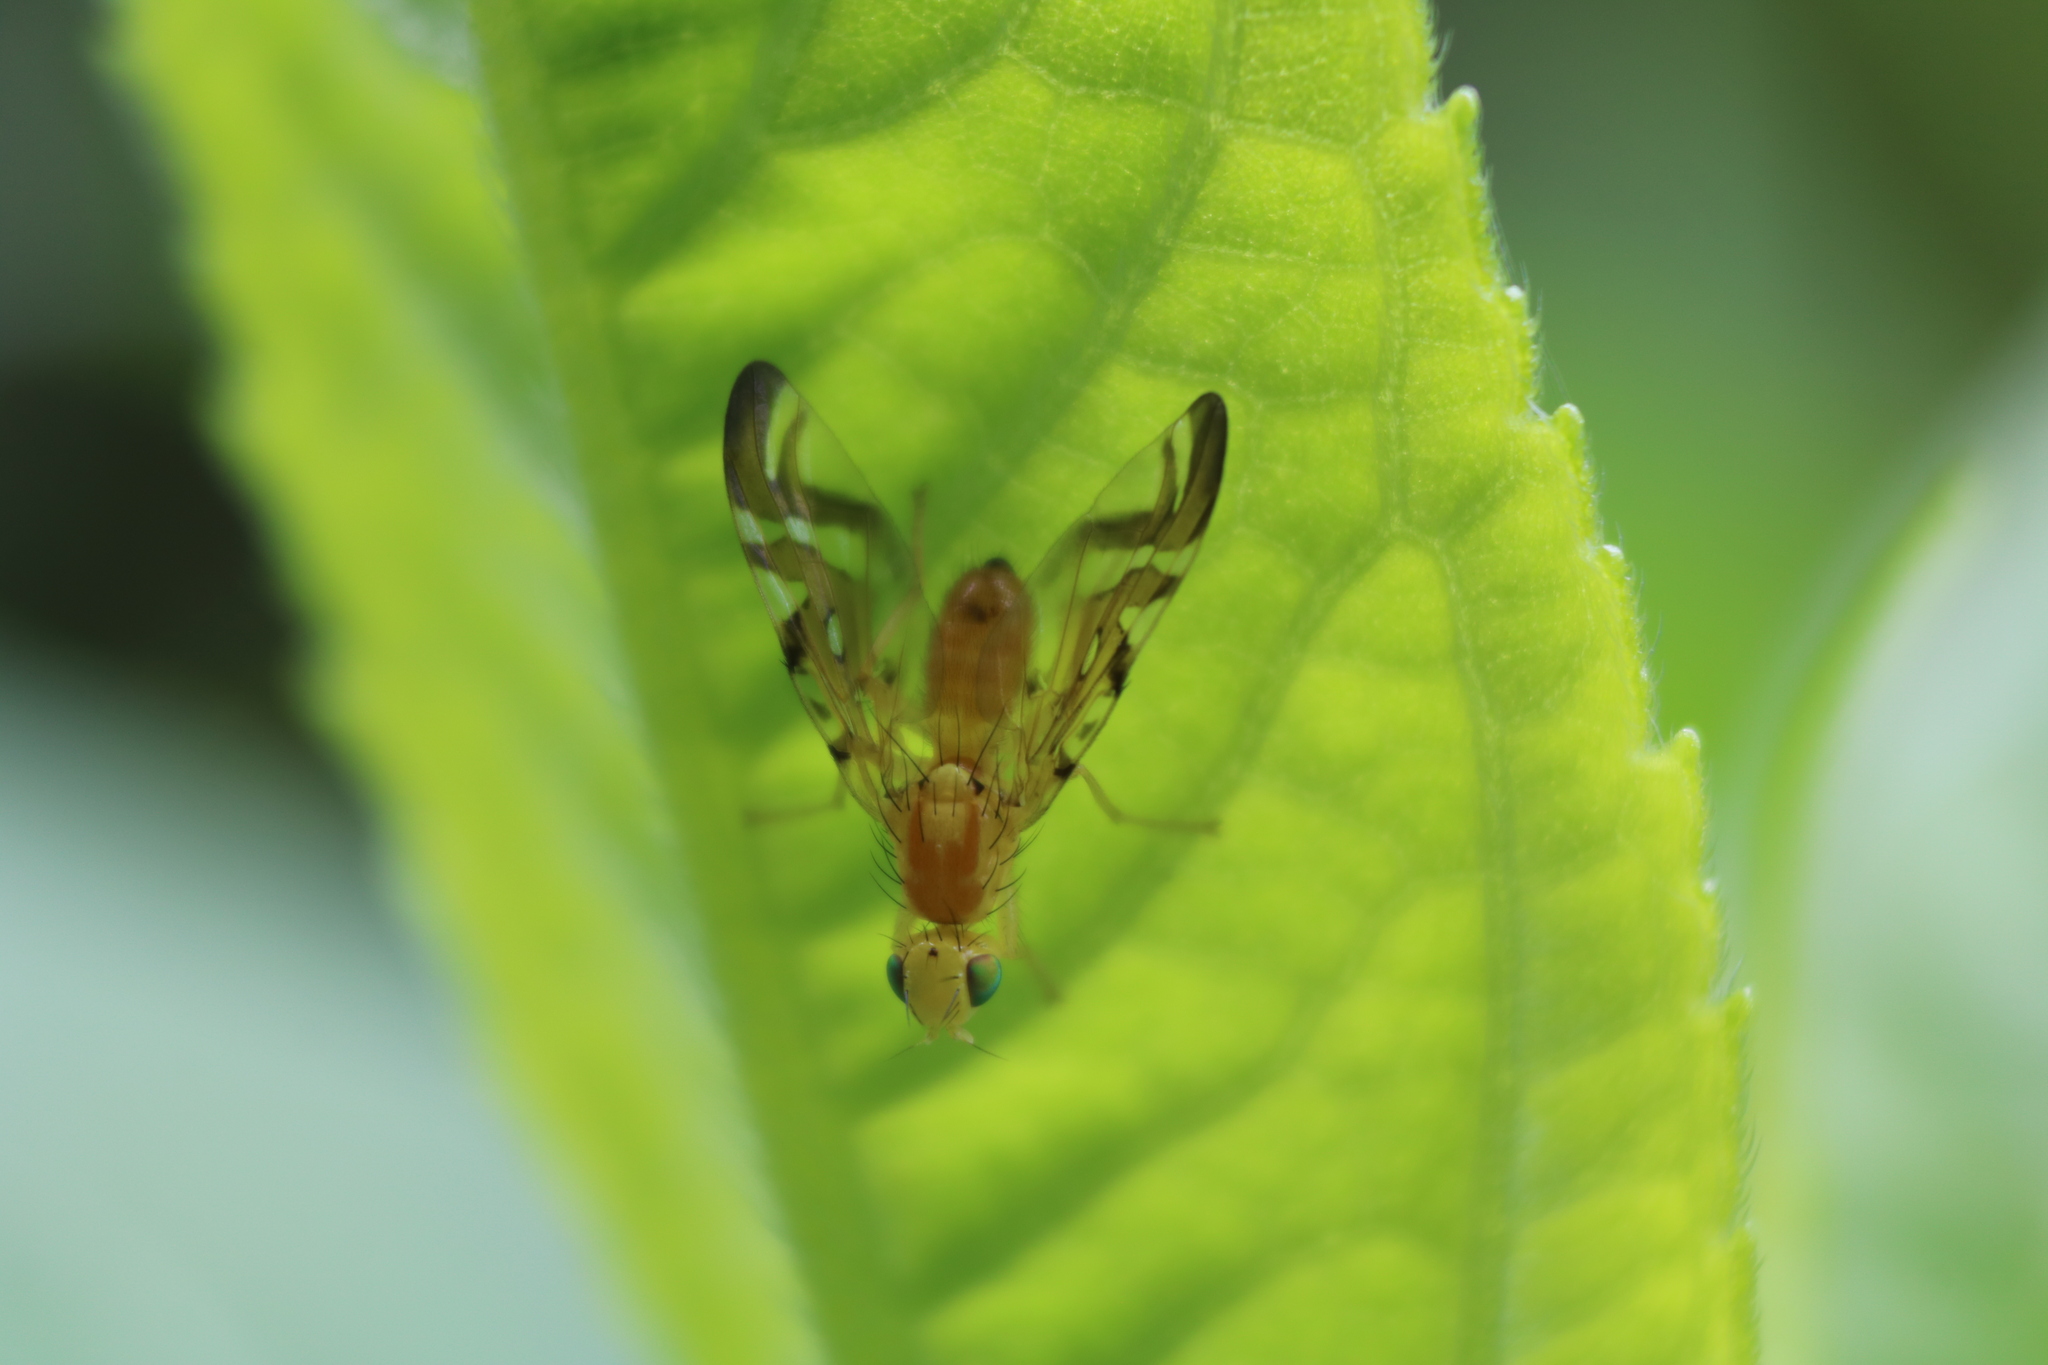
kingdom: Animalia
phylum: Arthropoda
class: Insecta
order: Diptera
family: Tephritidae
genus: Strauzia
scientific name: Strauzia longipennis
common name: Sunflower maggot
